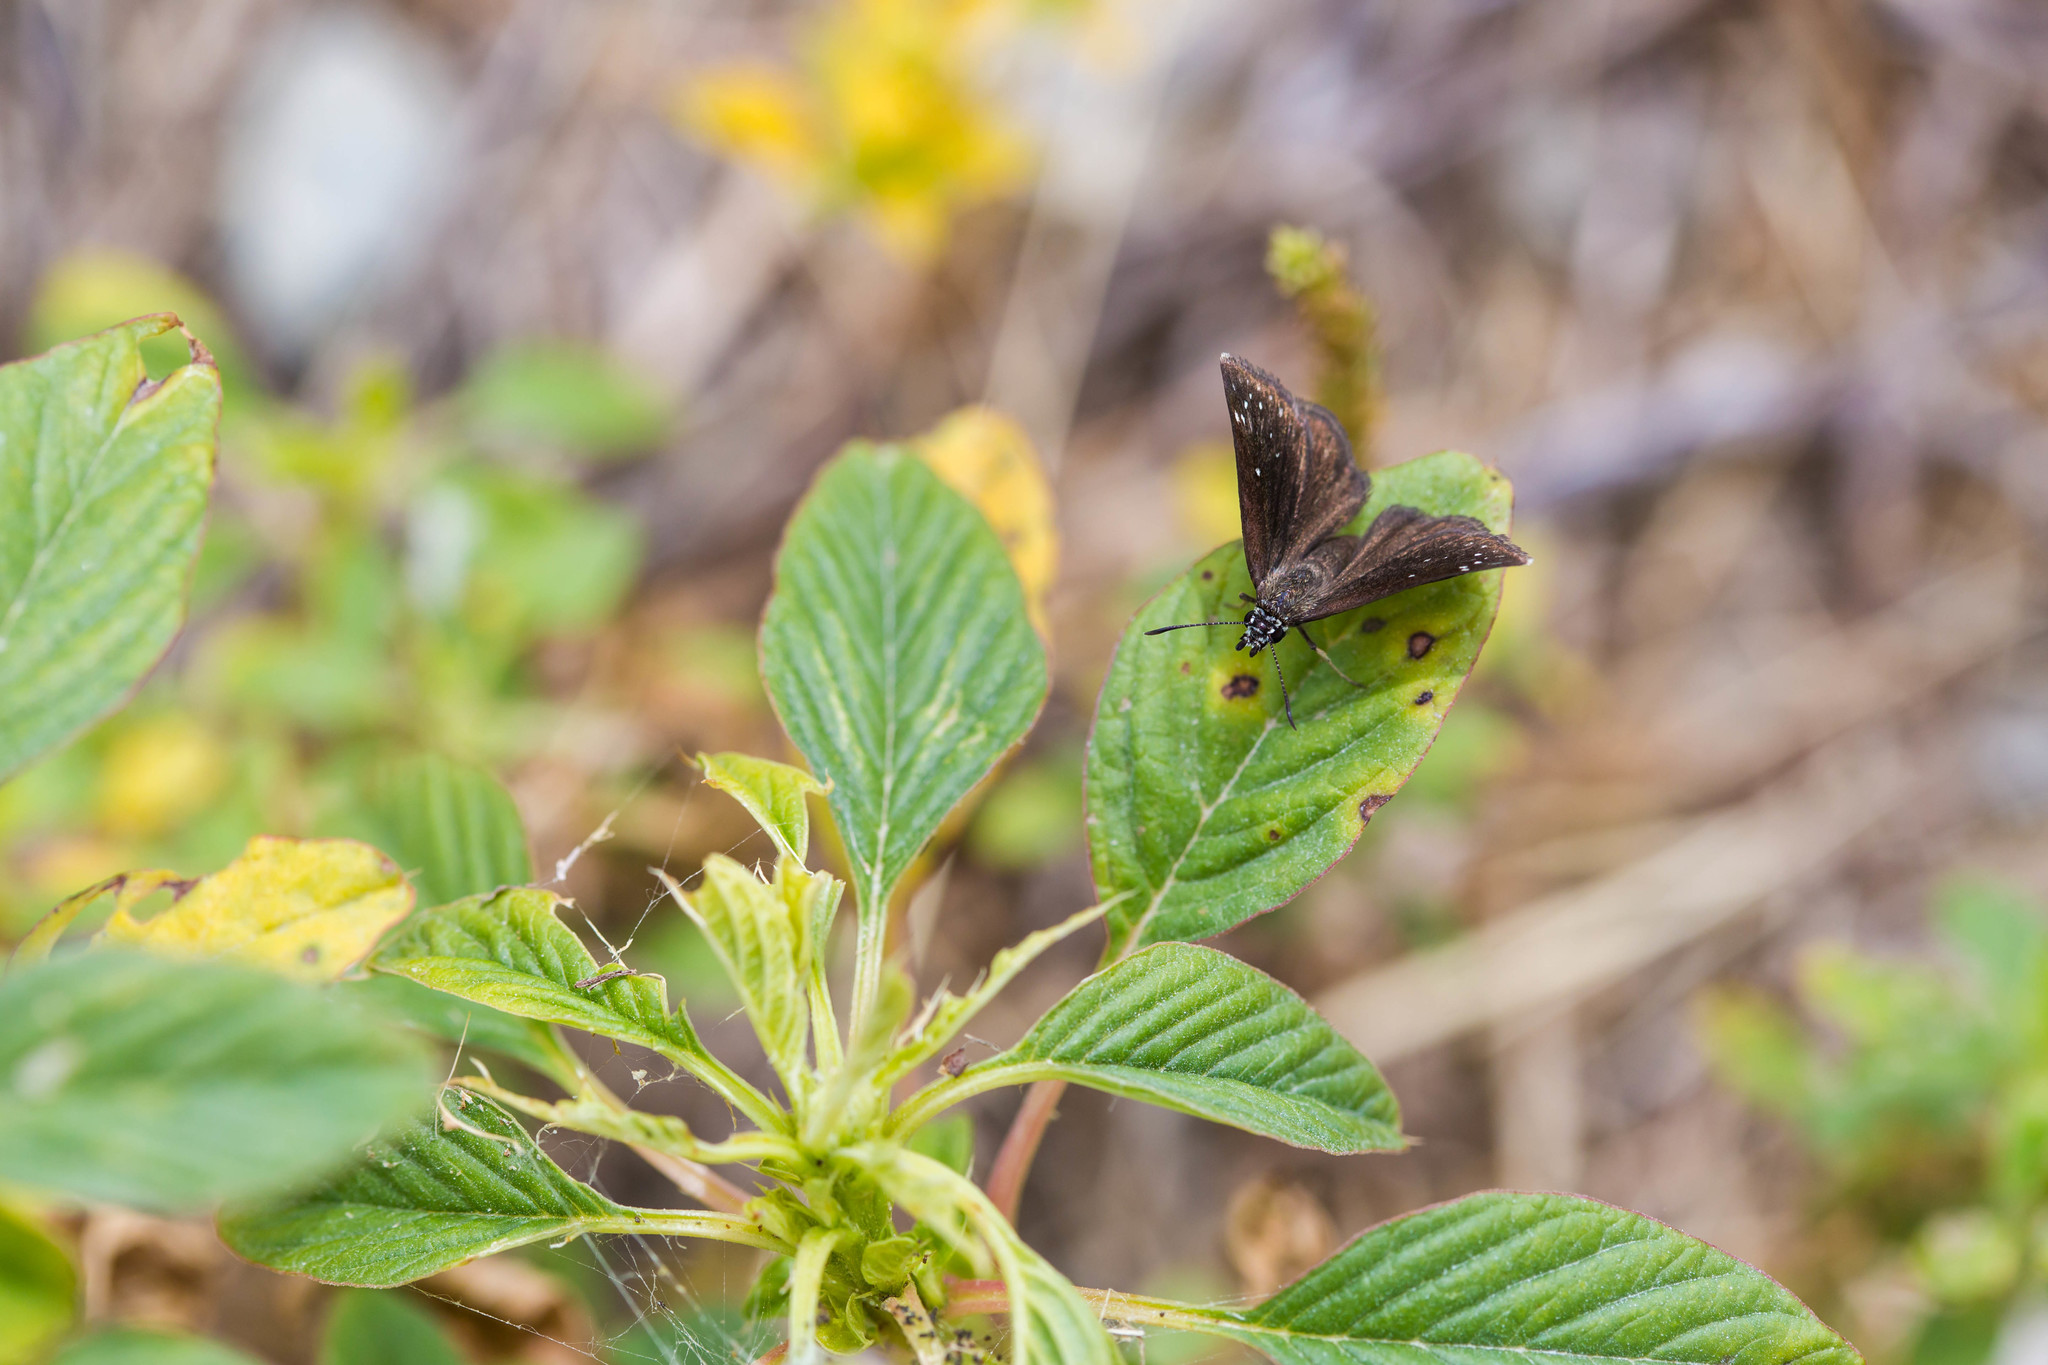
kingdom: Animalia
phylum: Arthropoda
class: Insecta
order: Lepidoptera
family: Hesperiidae
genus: Pholisora
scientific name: Pholisora catullus
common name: Common sootywing
